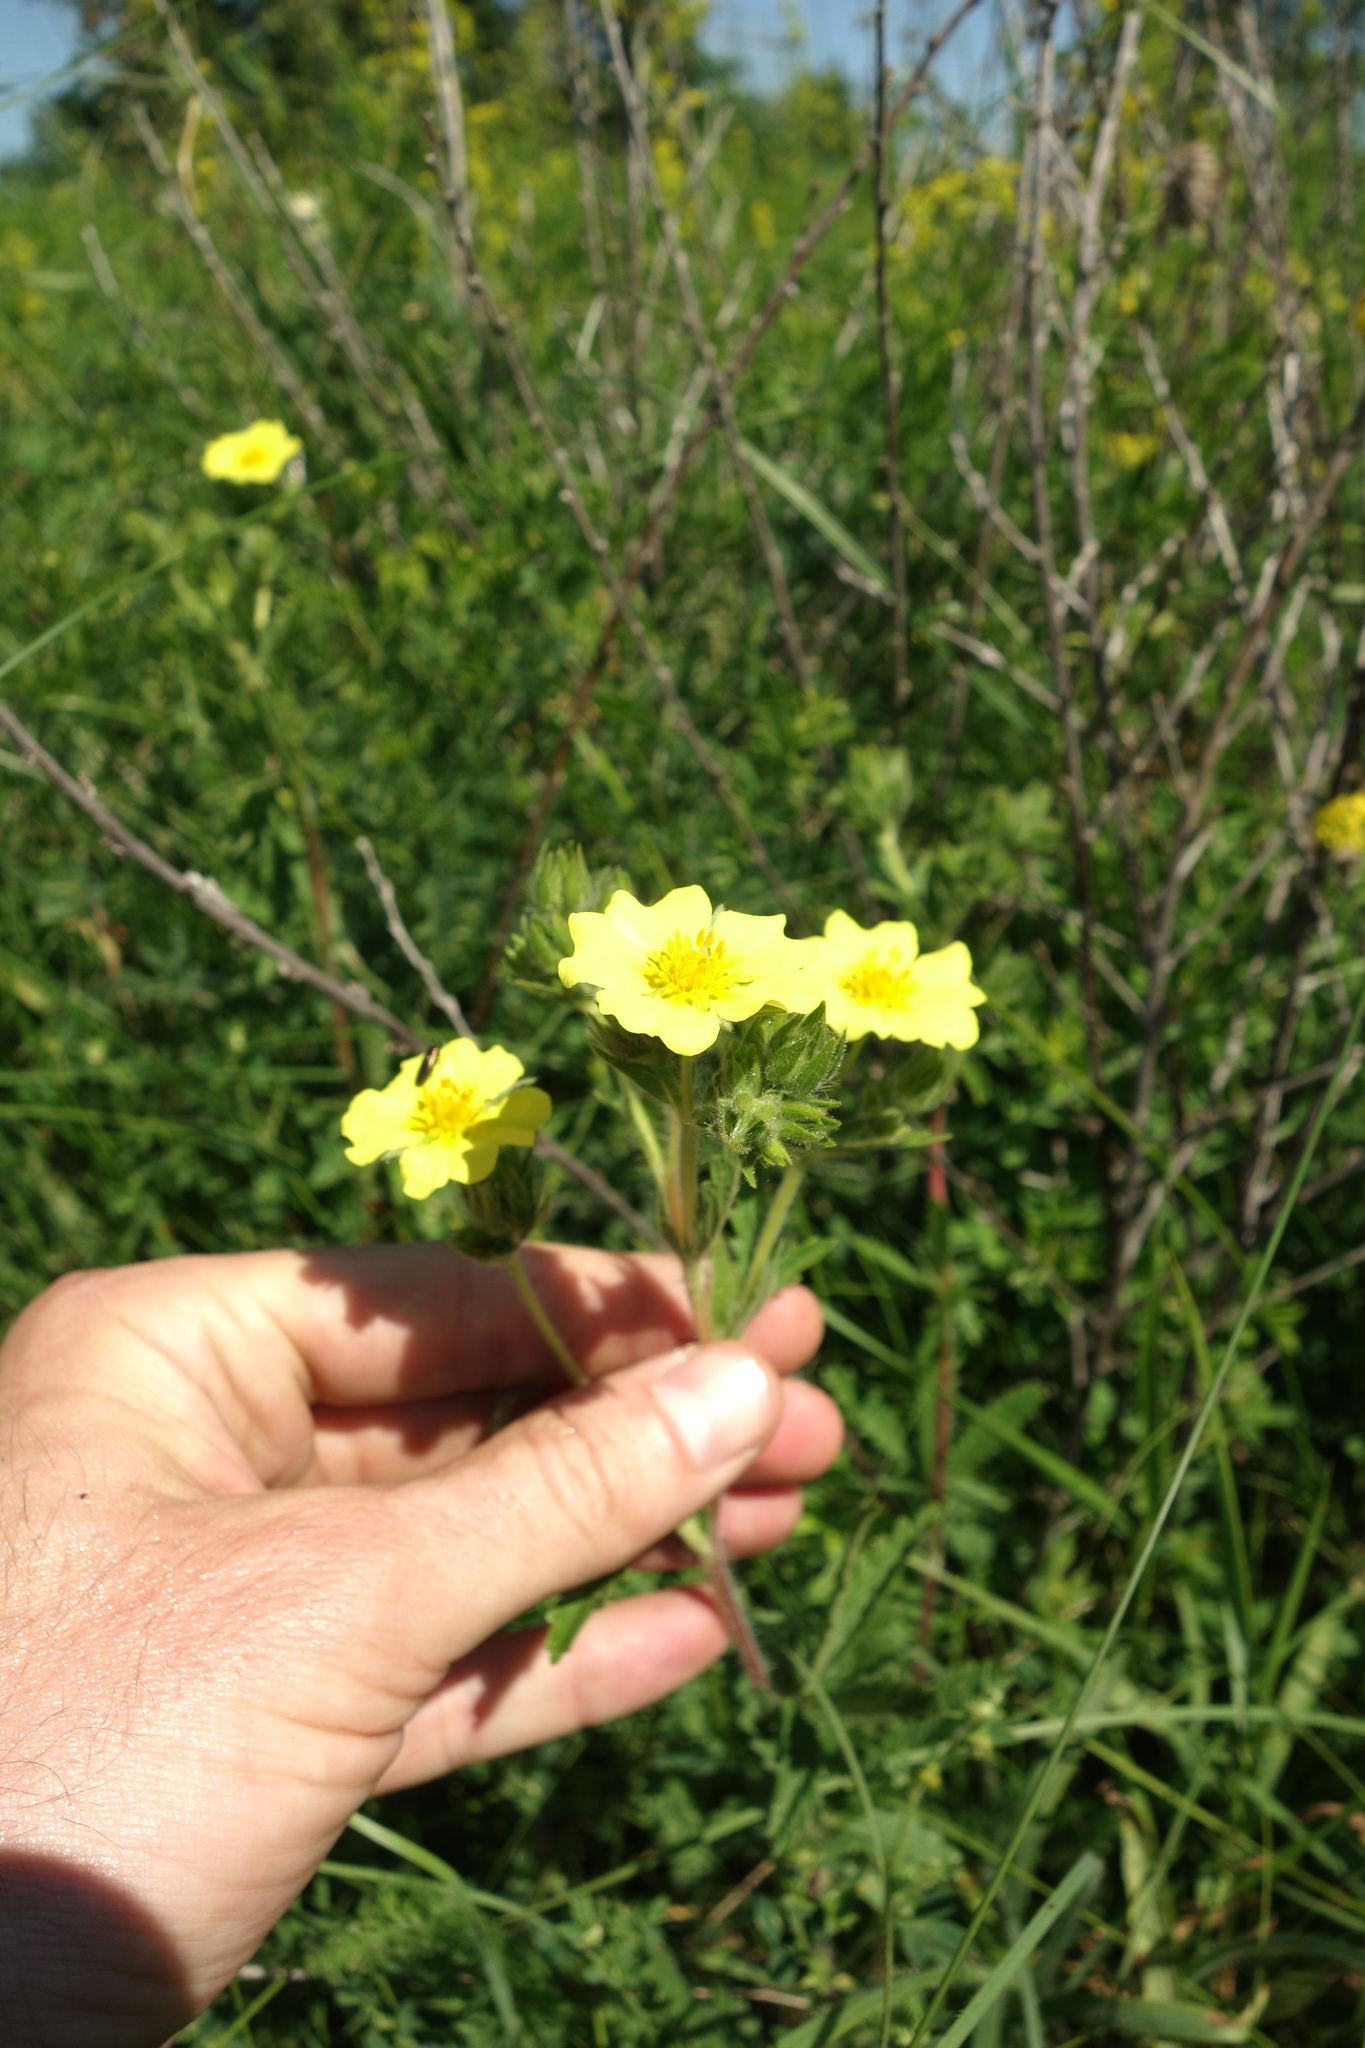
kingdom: Plantae
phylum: Tracheophyta
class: Magnoliopsida
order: Rosales
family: Rosaceae
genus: Potentilla
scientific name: Potentilla recta
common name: Sulphur cinquefoil
